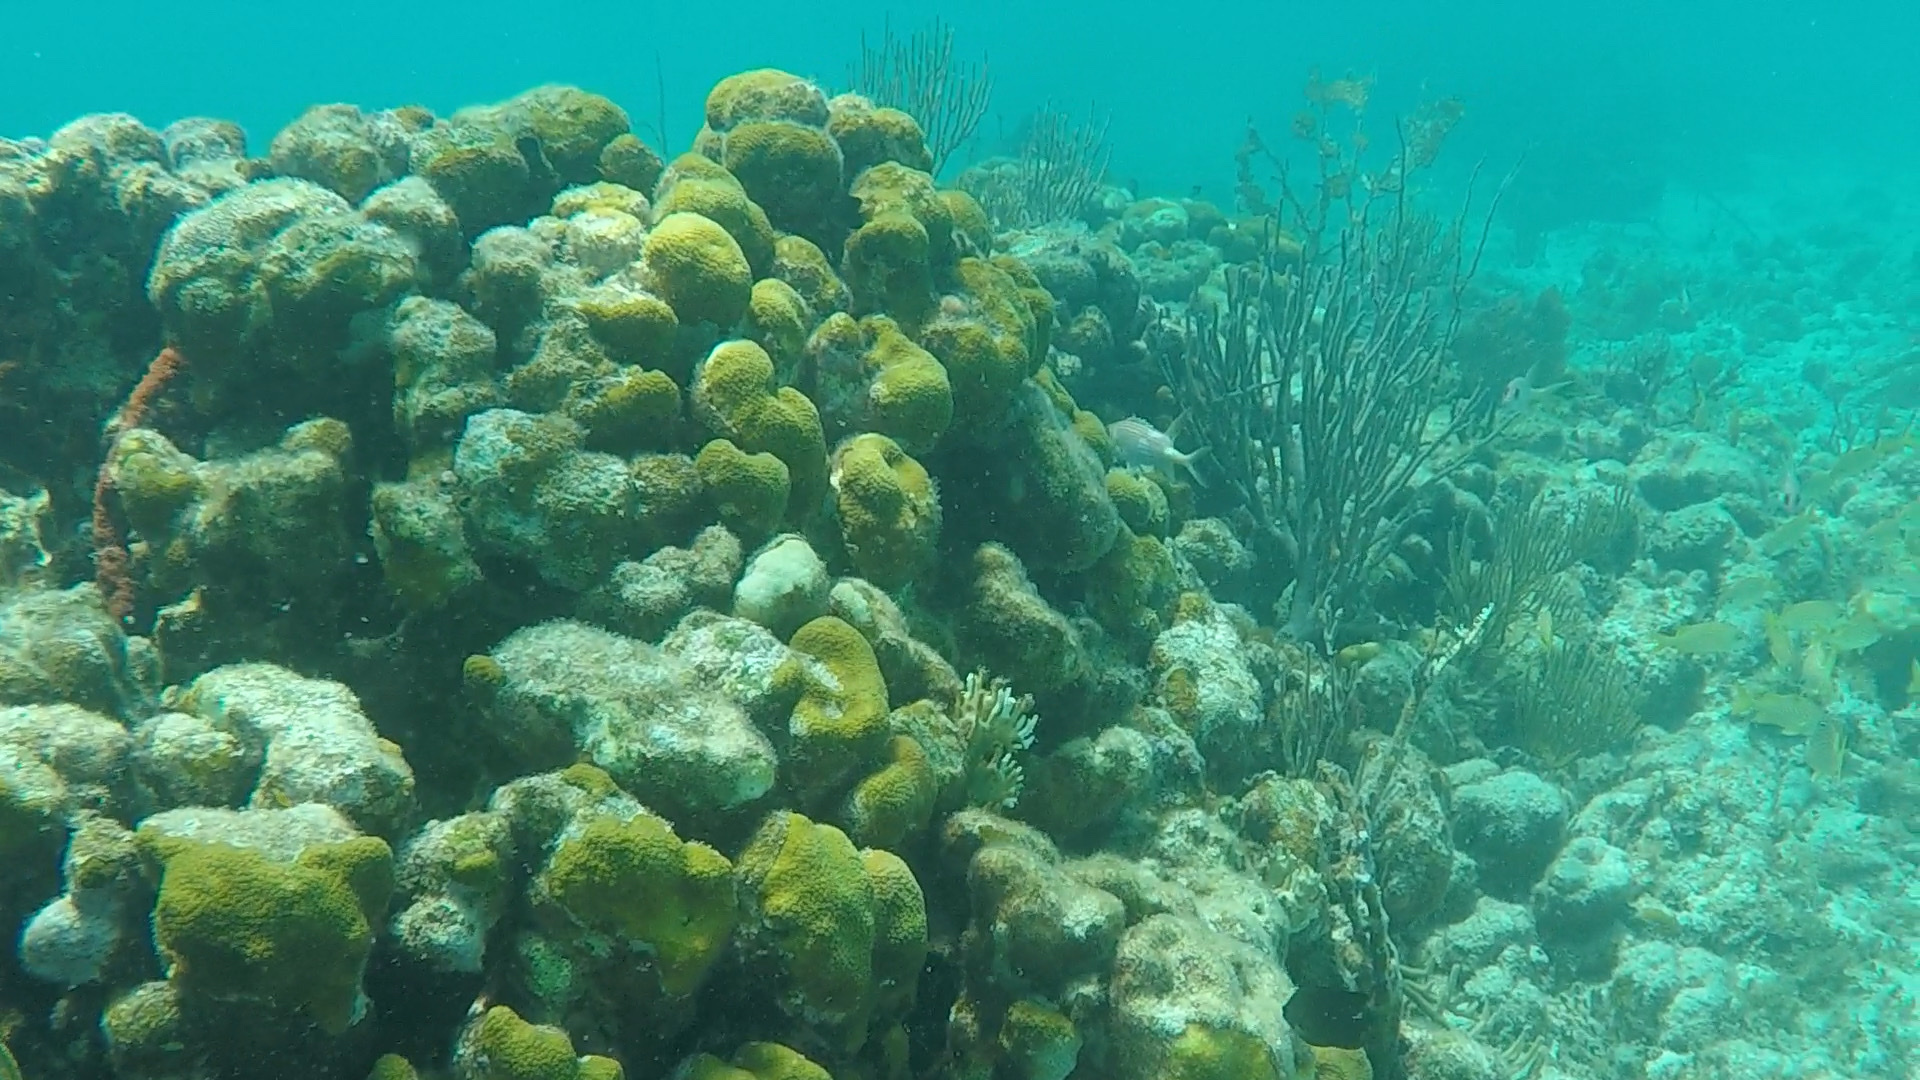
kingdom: Animalia
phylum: Cnidaria
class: Anthozoa
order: Scleractinia
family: Merulinidae
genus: Orbicella
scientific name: Orbicella annularis
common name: Boulder star coral
